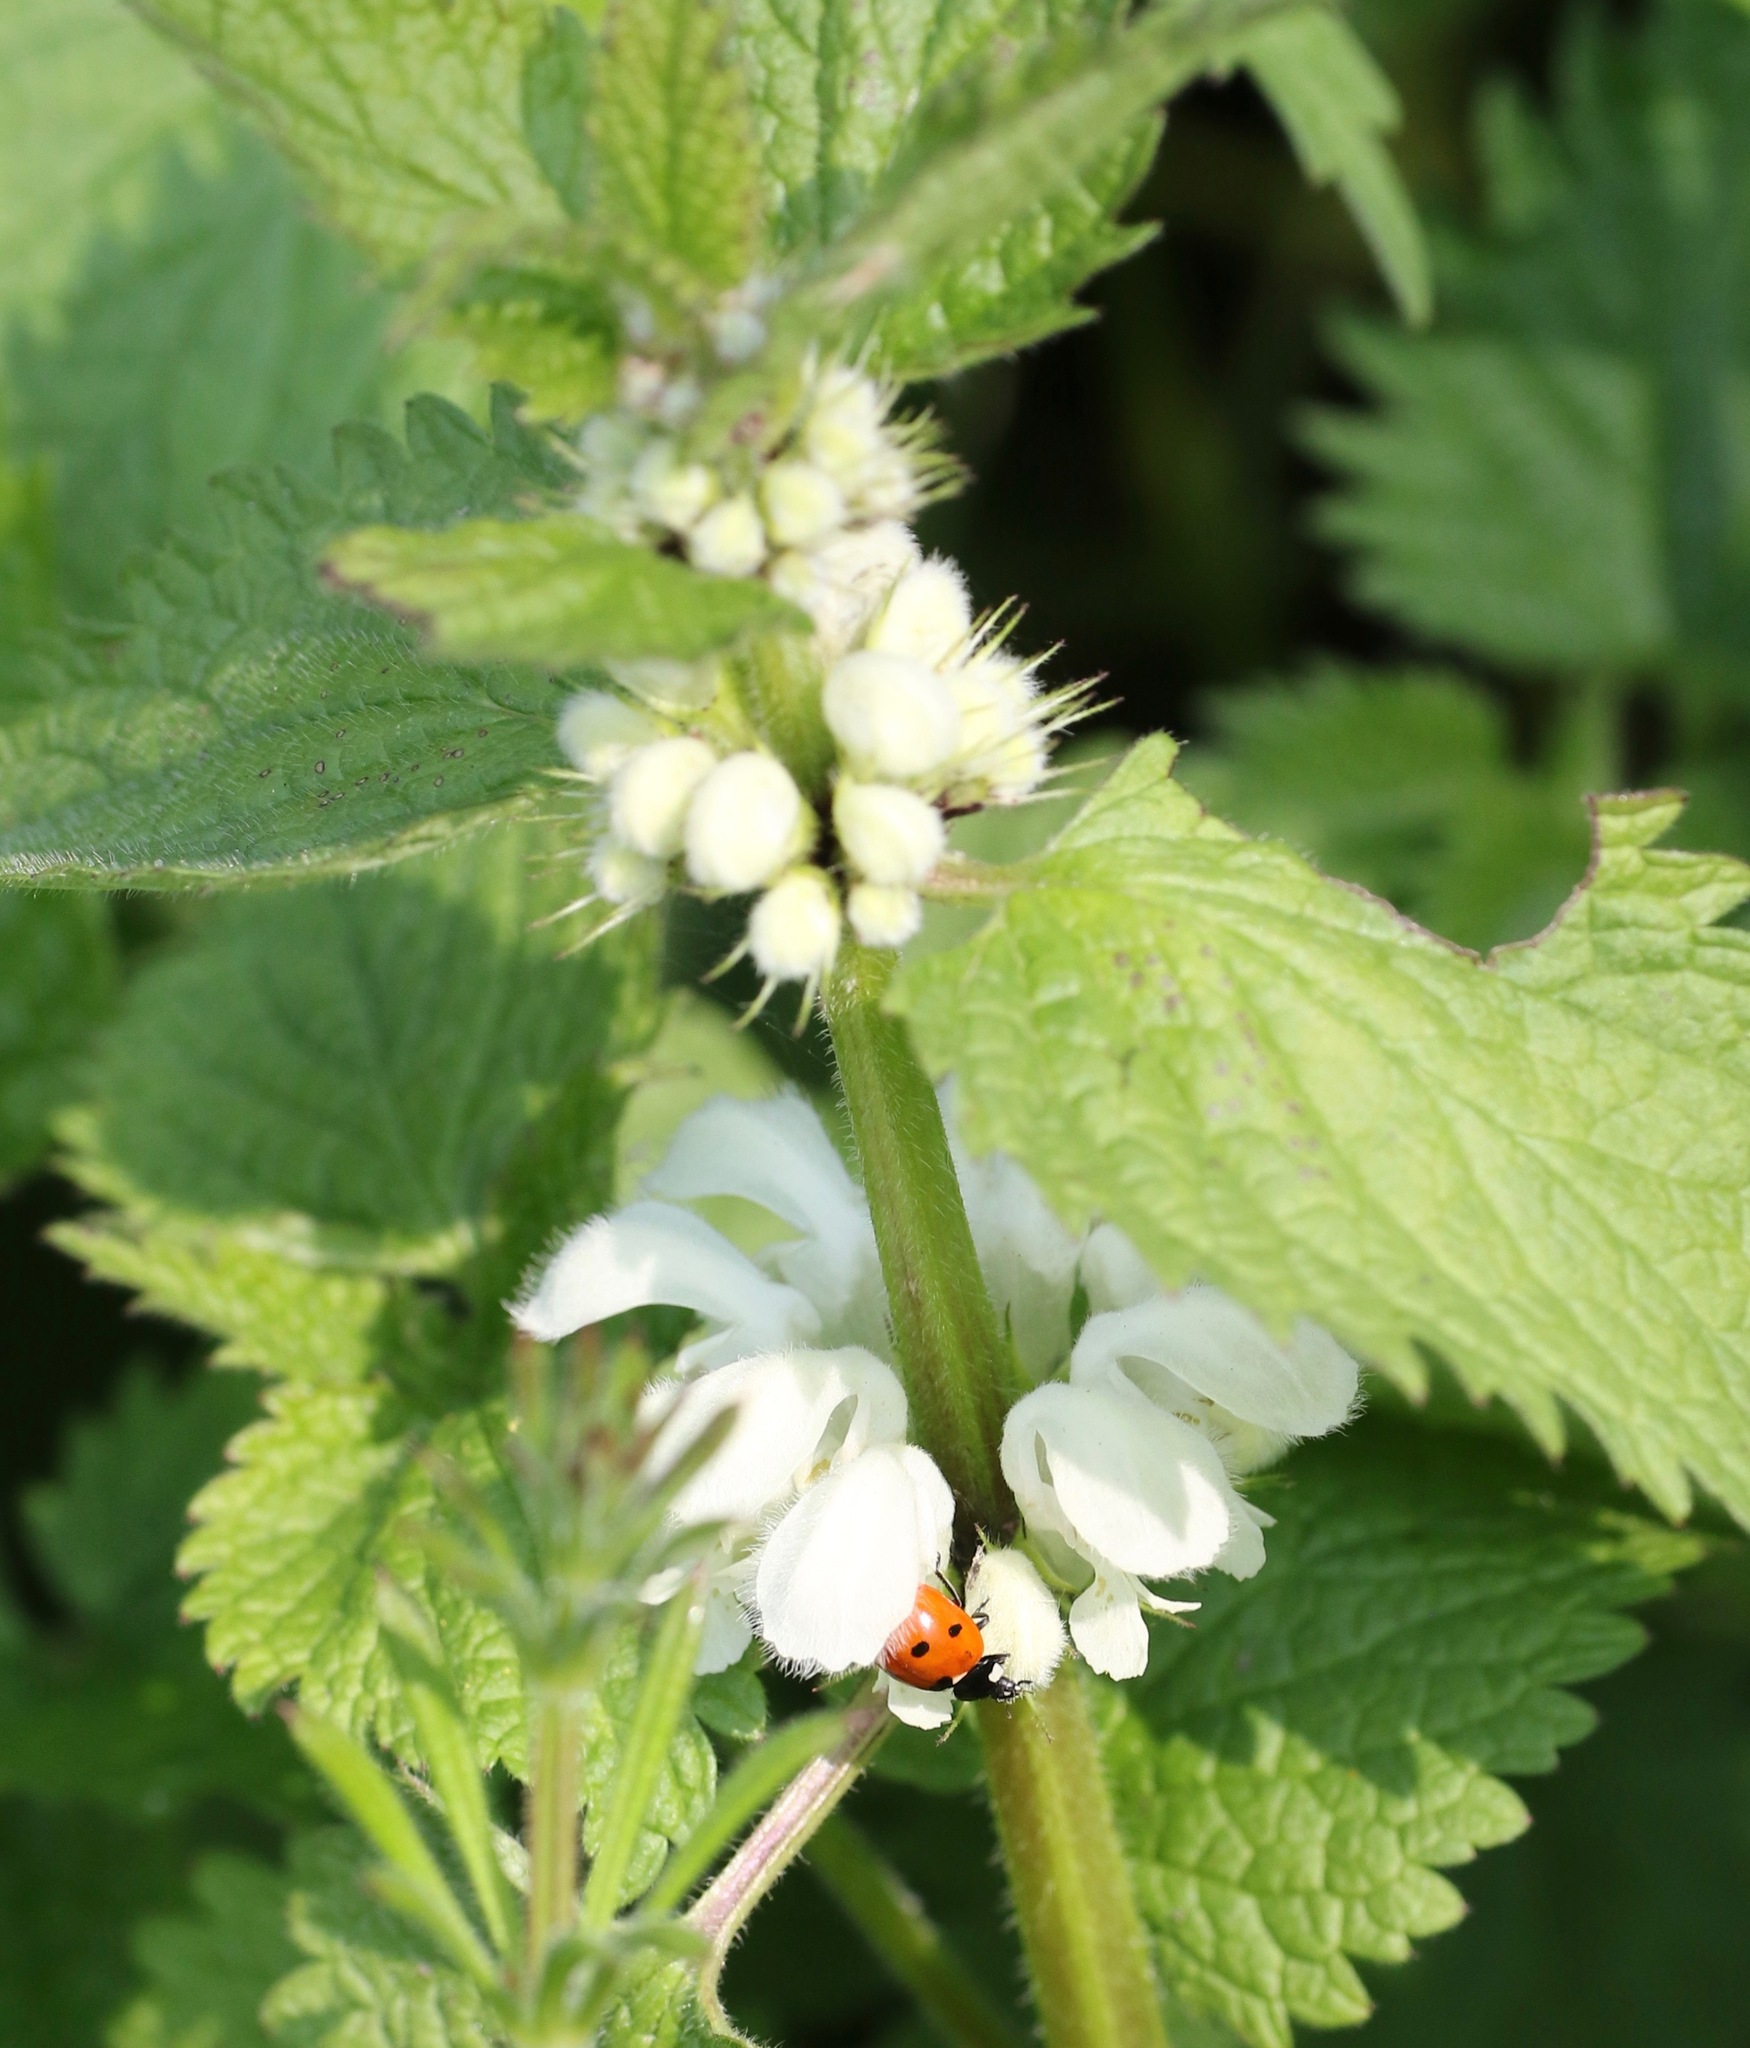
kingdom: Plantae
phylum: Tracheophyta
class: Magnoliopsida
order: Lamiales
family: Lamiaceae
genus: Lamium
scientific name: Lamium album
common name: White dead-nettle
